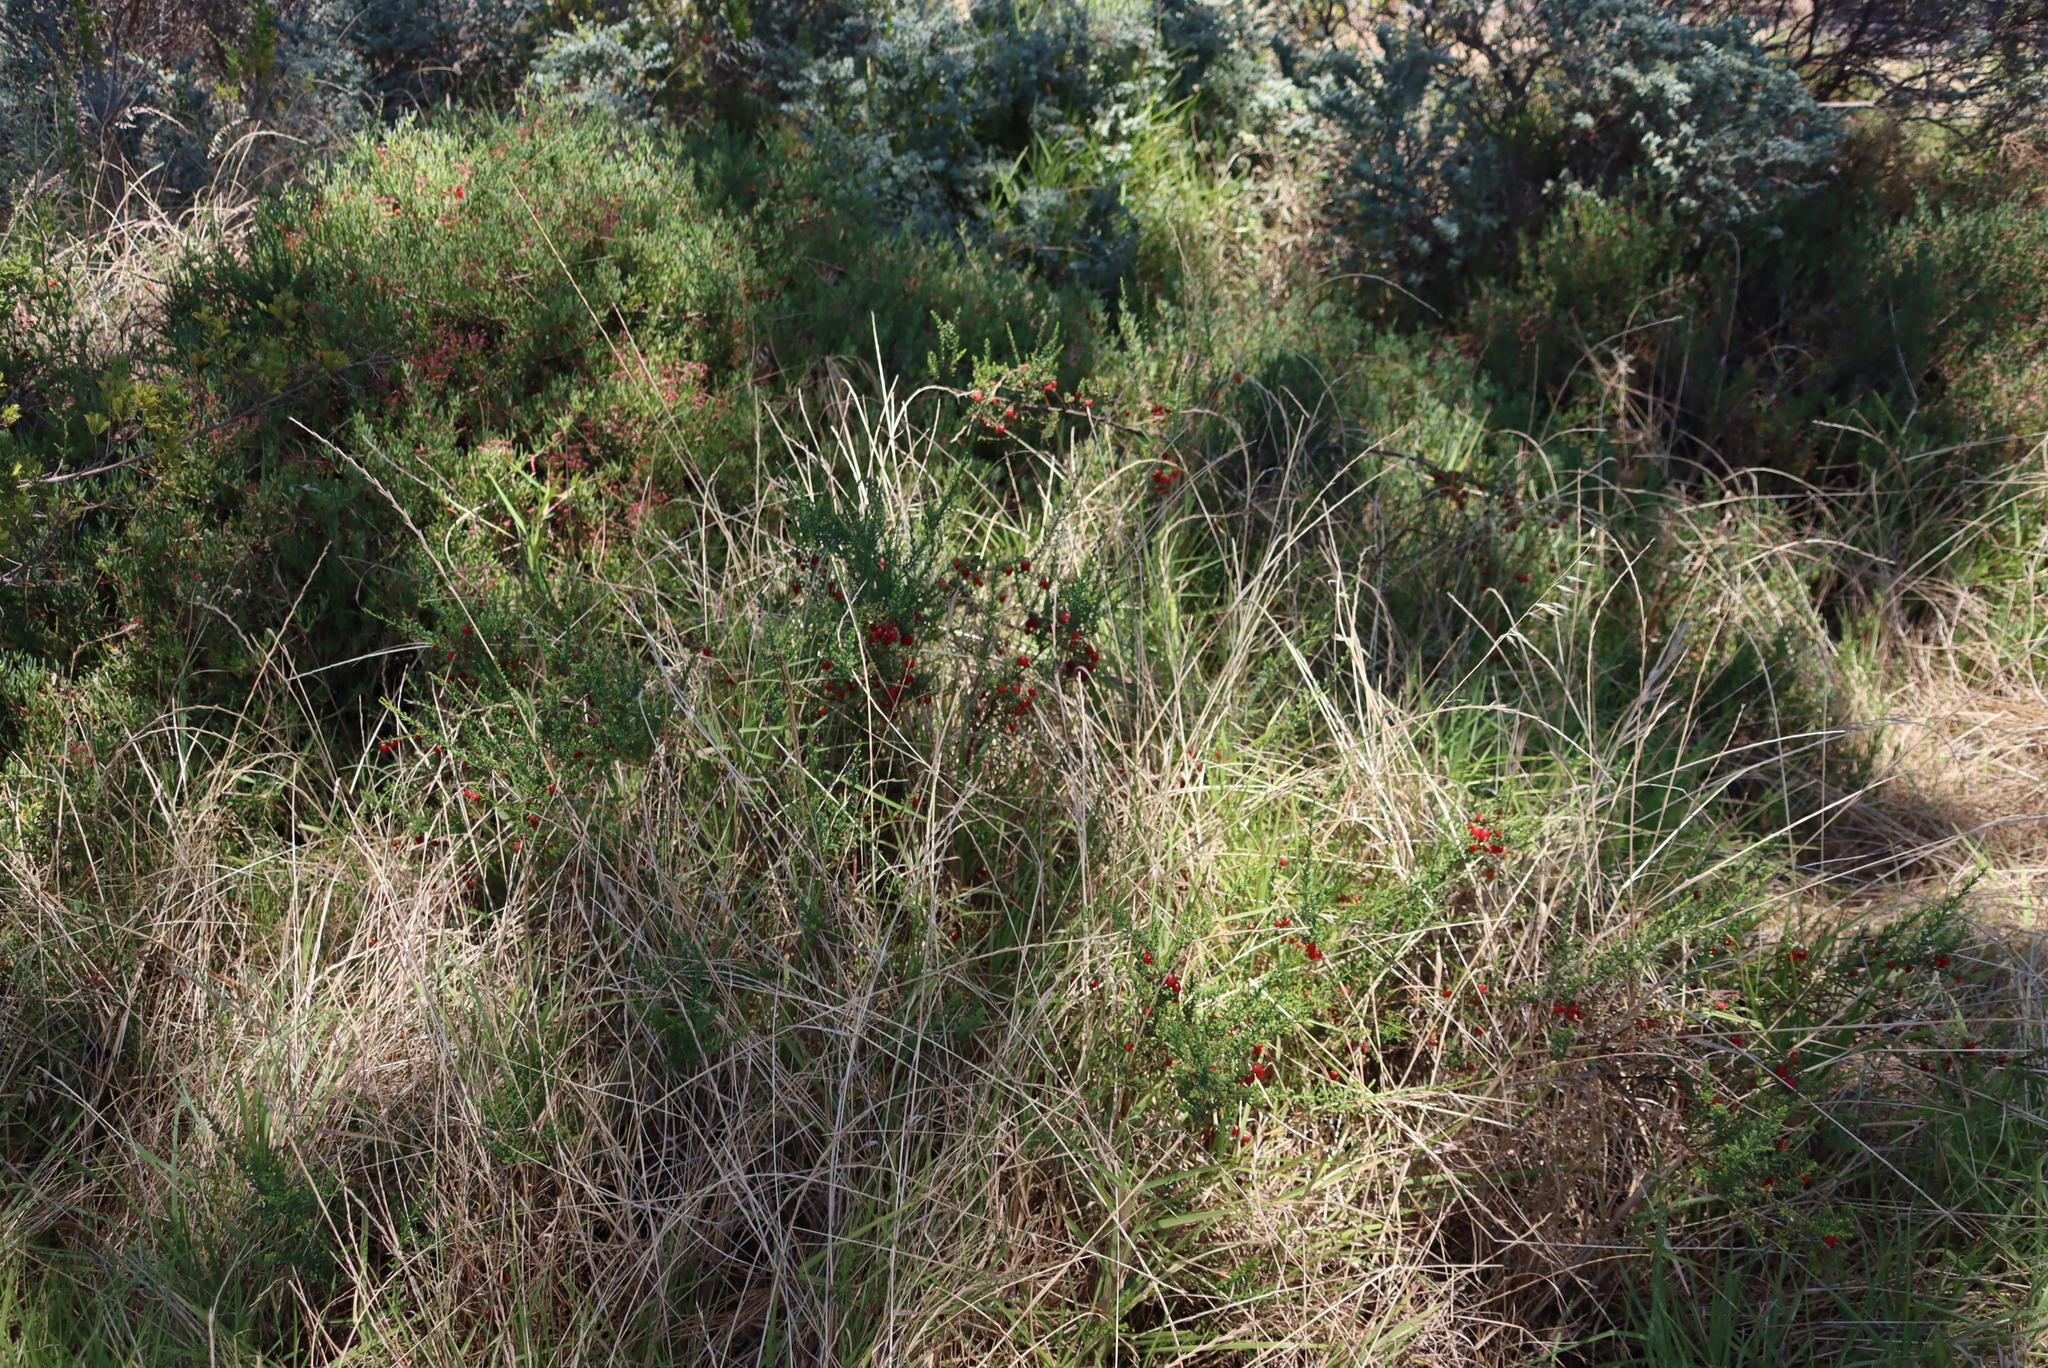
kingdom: Plantae
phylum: Tracheophyta
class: Magnoliopsida
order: Gentianales
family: Gentianaceae
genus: Chironia
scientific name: Chironia baccifera
